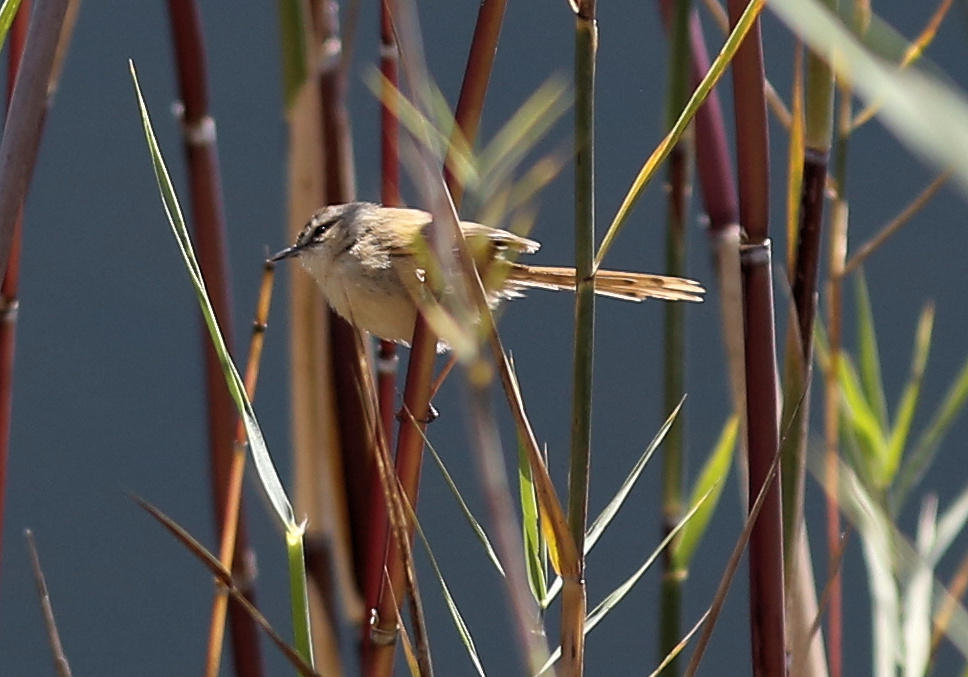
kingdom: Animalia
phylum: Chordata
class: Aves
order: Passeriformes
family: Cisticolidae
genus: Prinia
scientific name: Prinia subflava
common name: Tawny-flanked prinia
